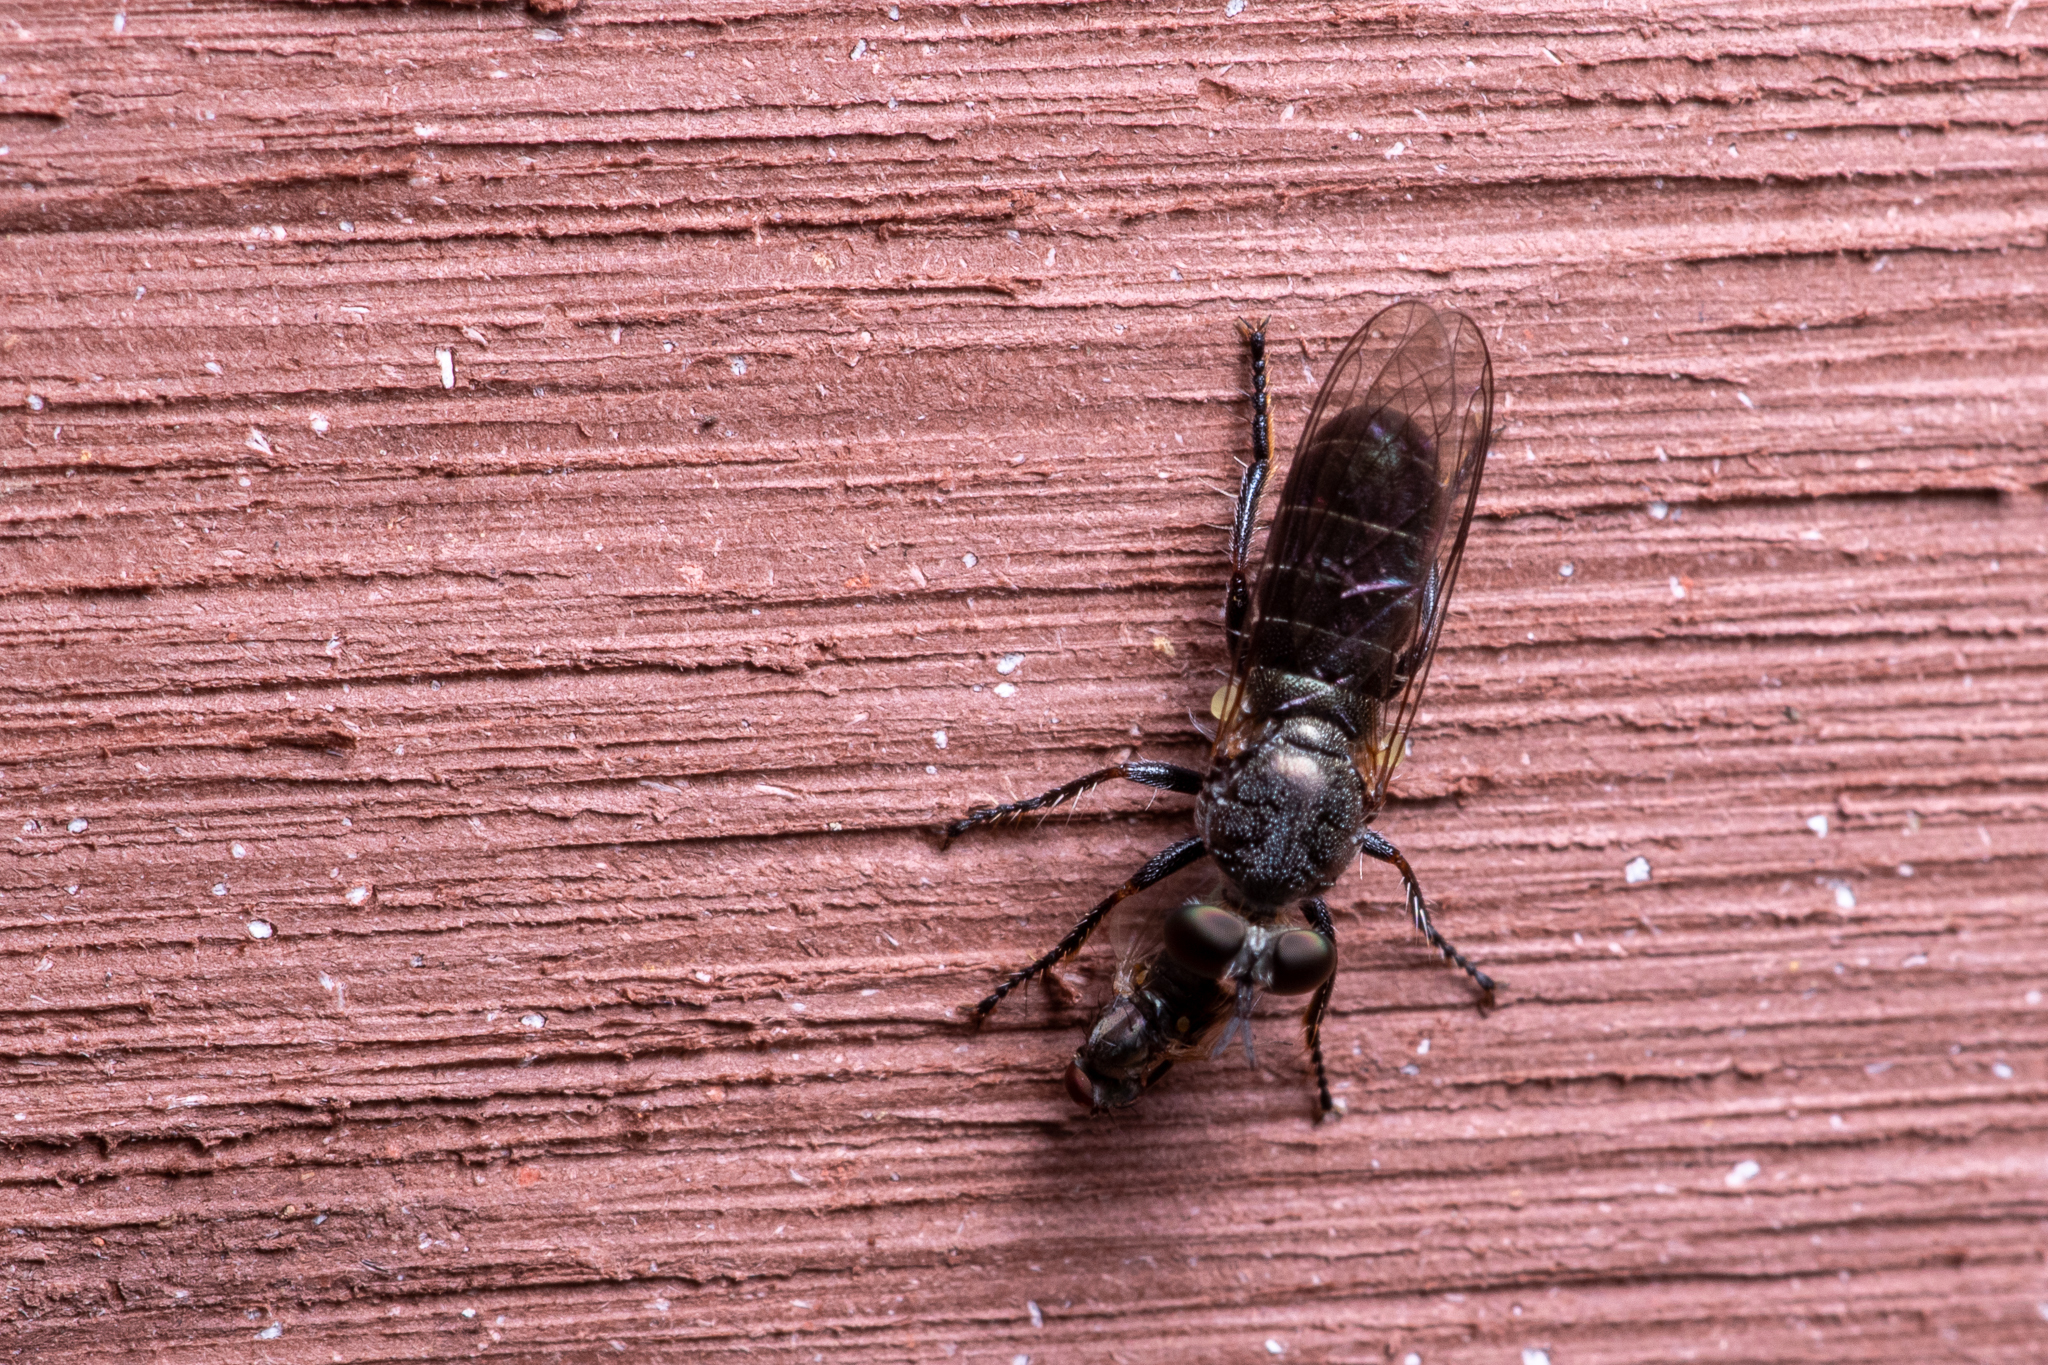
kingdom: Animalia
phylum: Arthropoda
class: Insecta
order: Diptera
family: Asilidae
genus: Atomosia
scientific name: Atomosia puella
